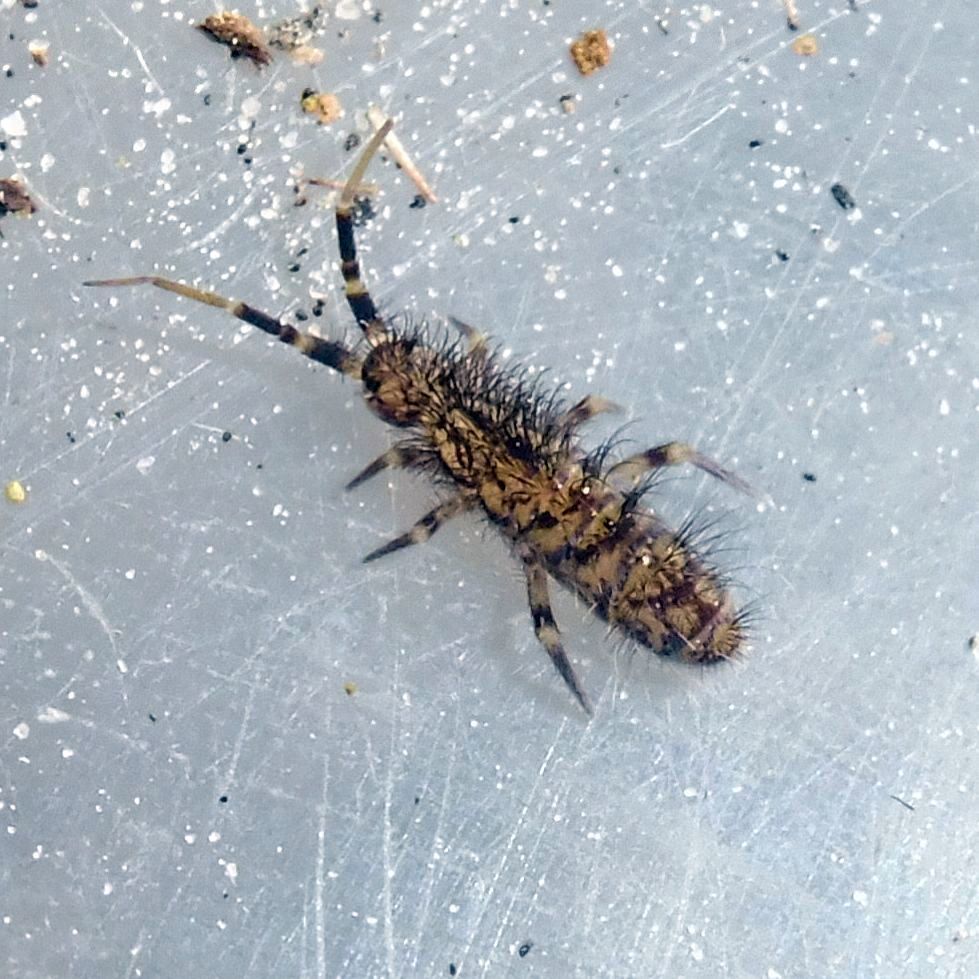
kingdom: Animalia
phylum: Arthropoda
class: Collembola
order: Entomobryomorpha
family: Orchesellidae
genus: Orchesella
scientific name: Orchesella villosa
